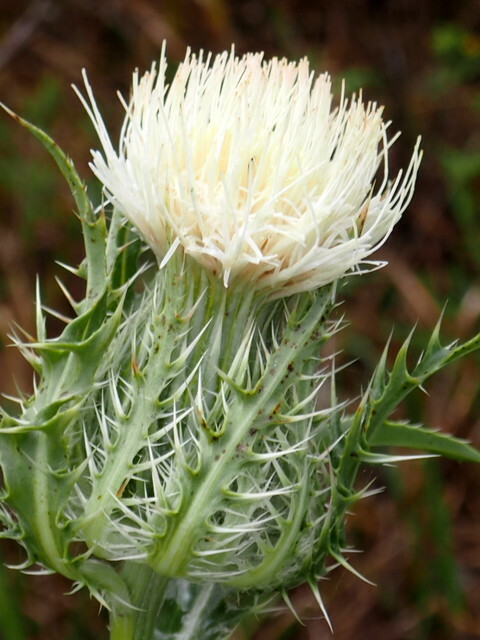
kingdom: Plantae
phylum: Tracheophyta
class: Magnoliopsida
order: Asterales
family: Asteraceae
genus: Cirsium
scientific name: Cirsium horridulum
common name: Bristly thistle
